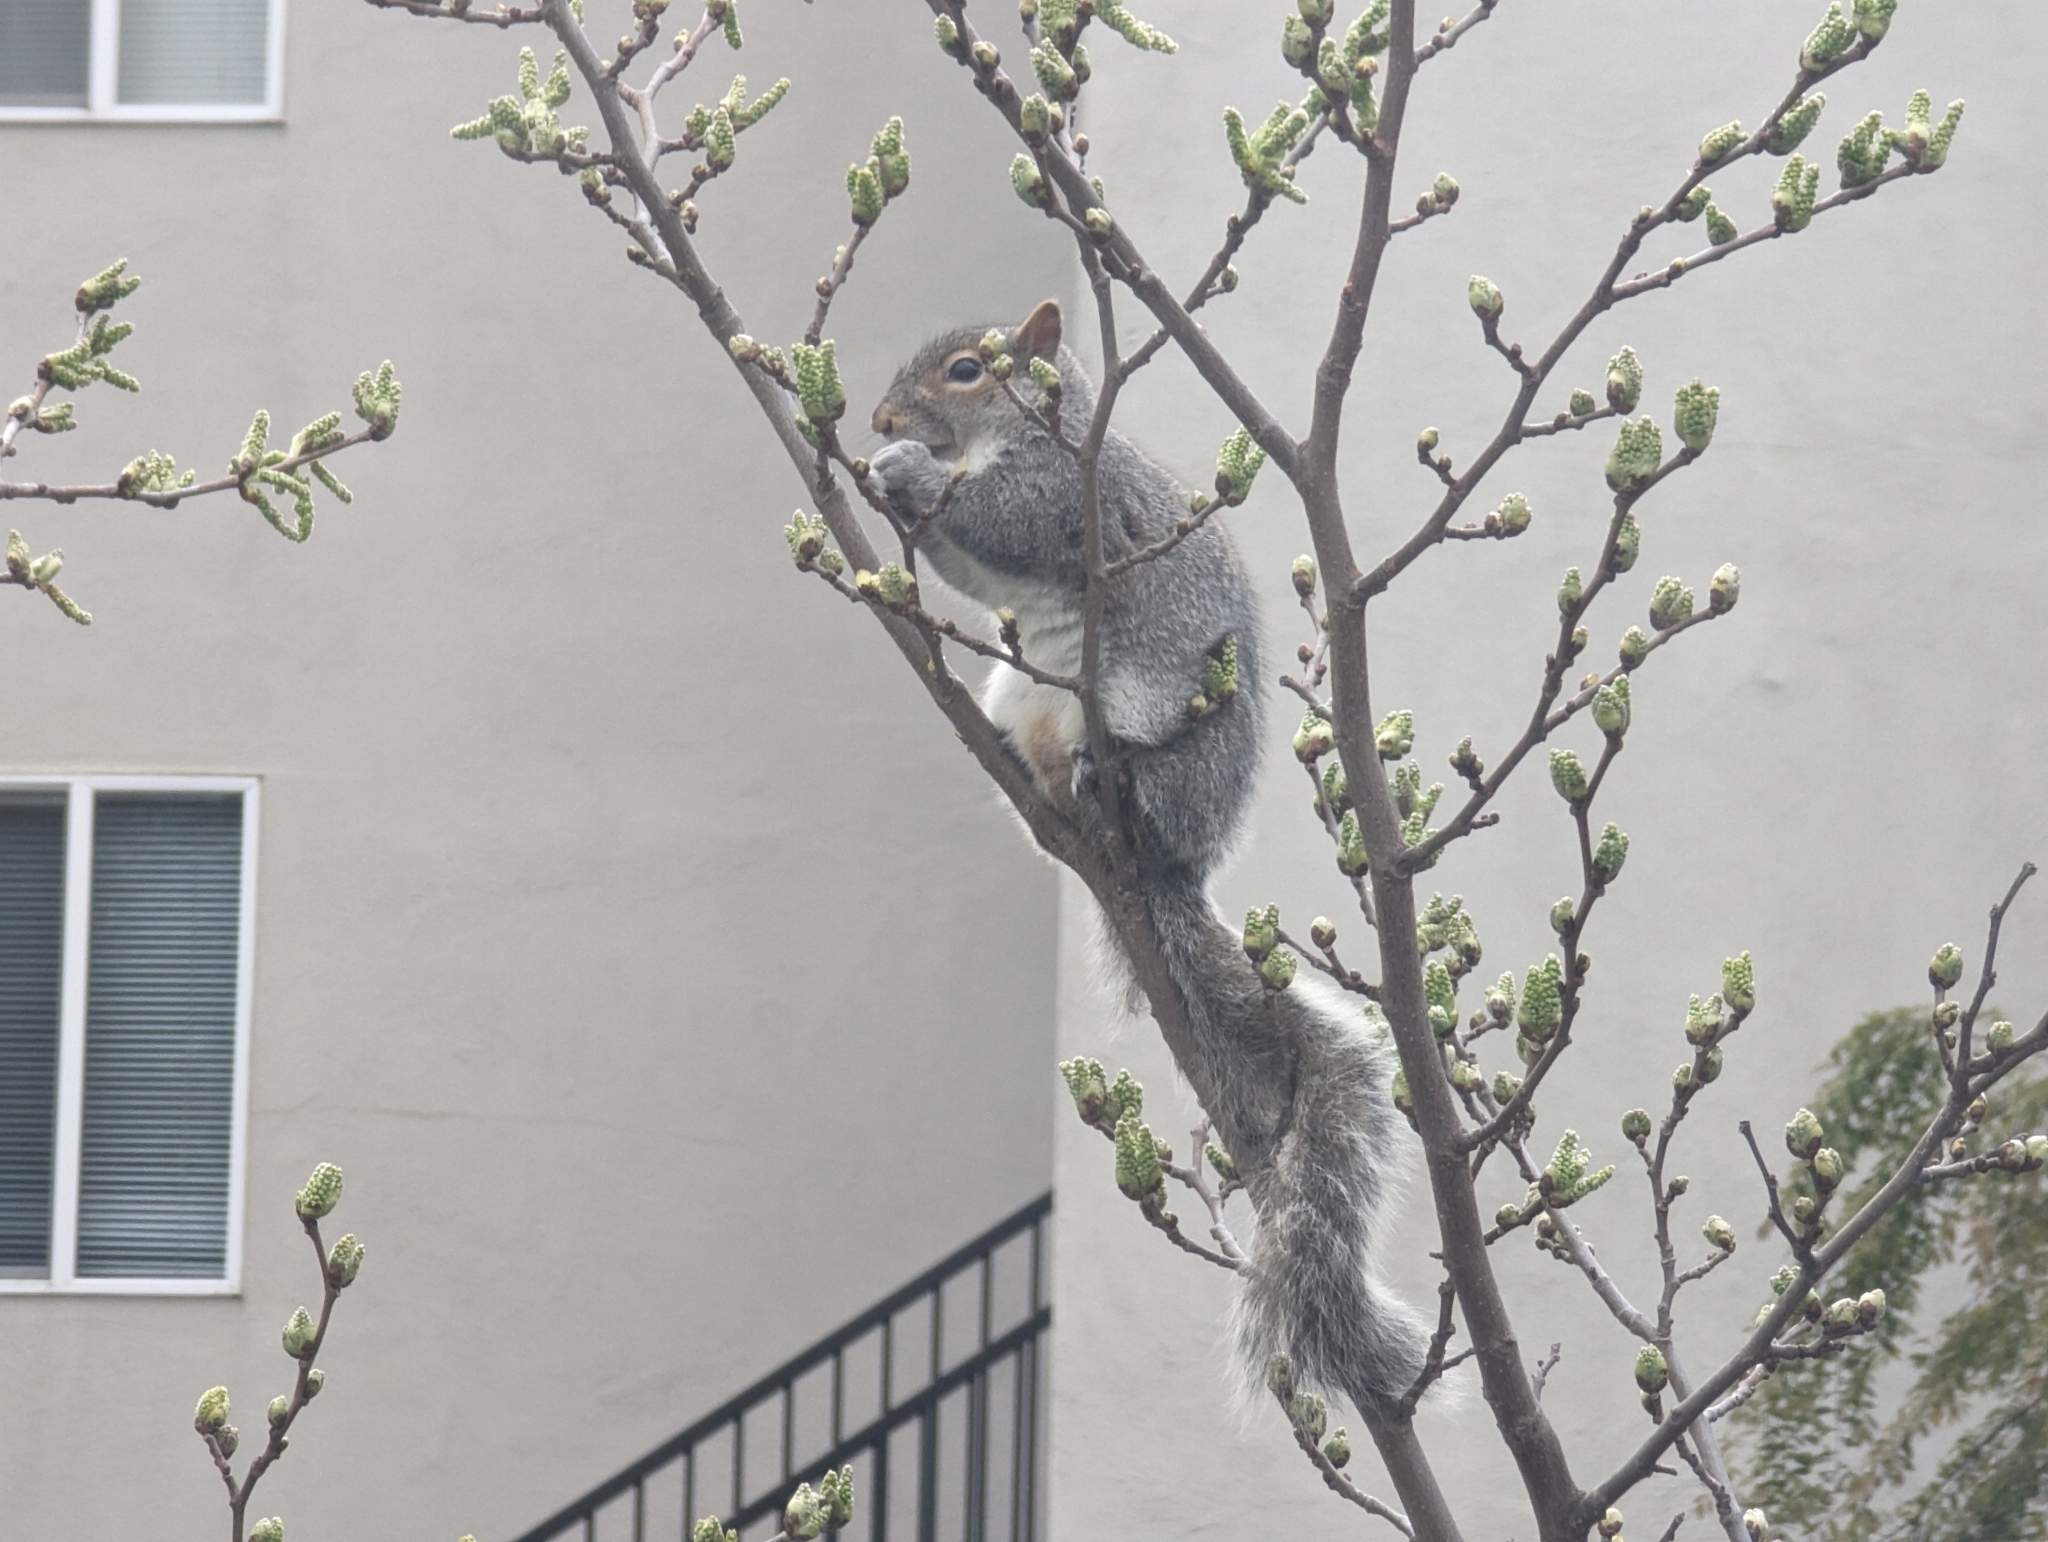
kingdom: Animalia
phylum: Chordata
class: Mammalia
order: Rodentia
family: Sciuridae
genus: Sciurus
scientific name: Sciurus carolinensis
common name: Eastern gray squirrel
